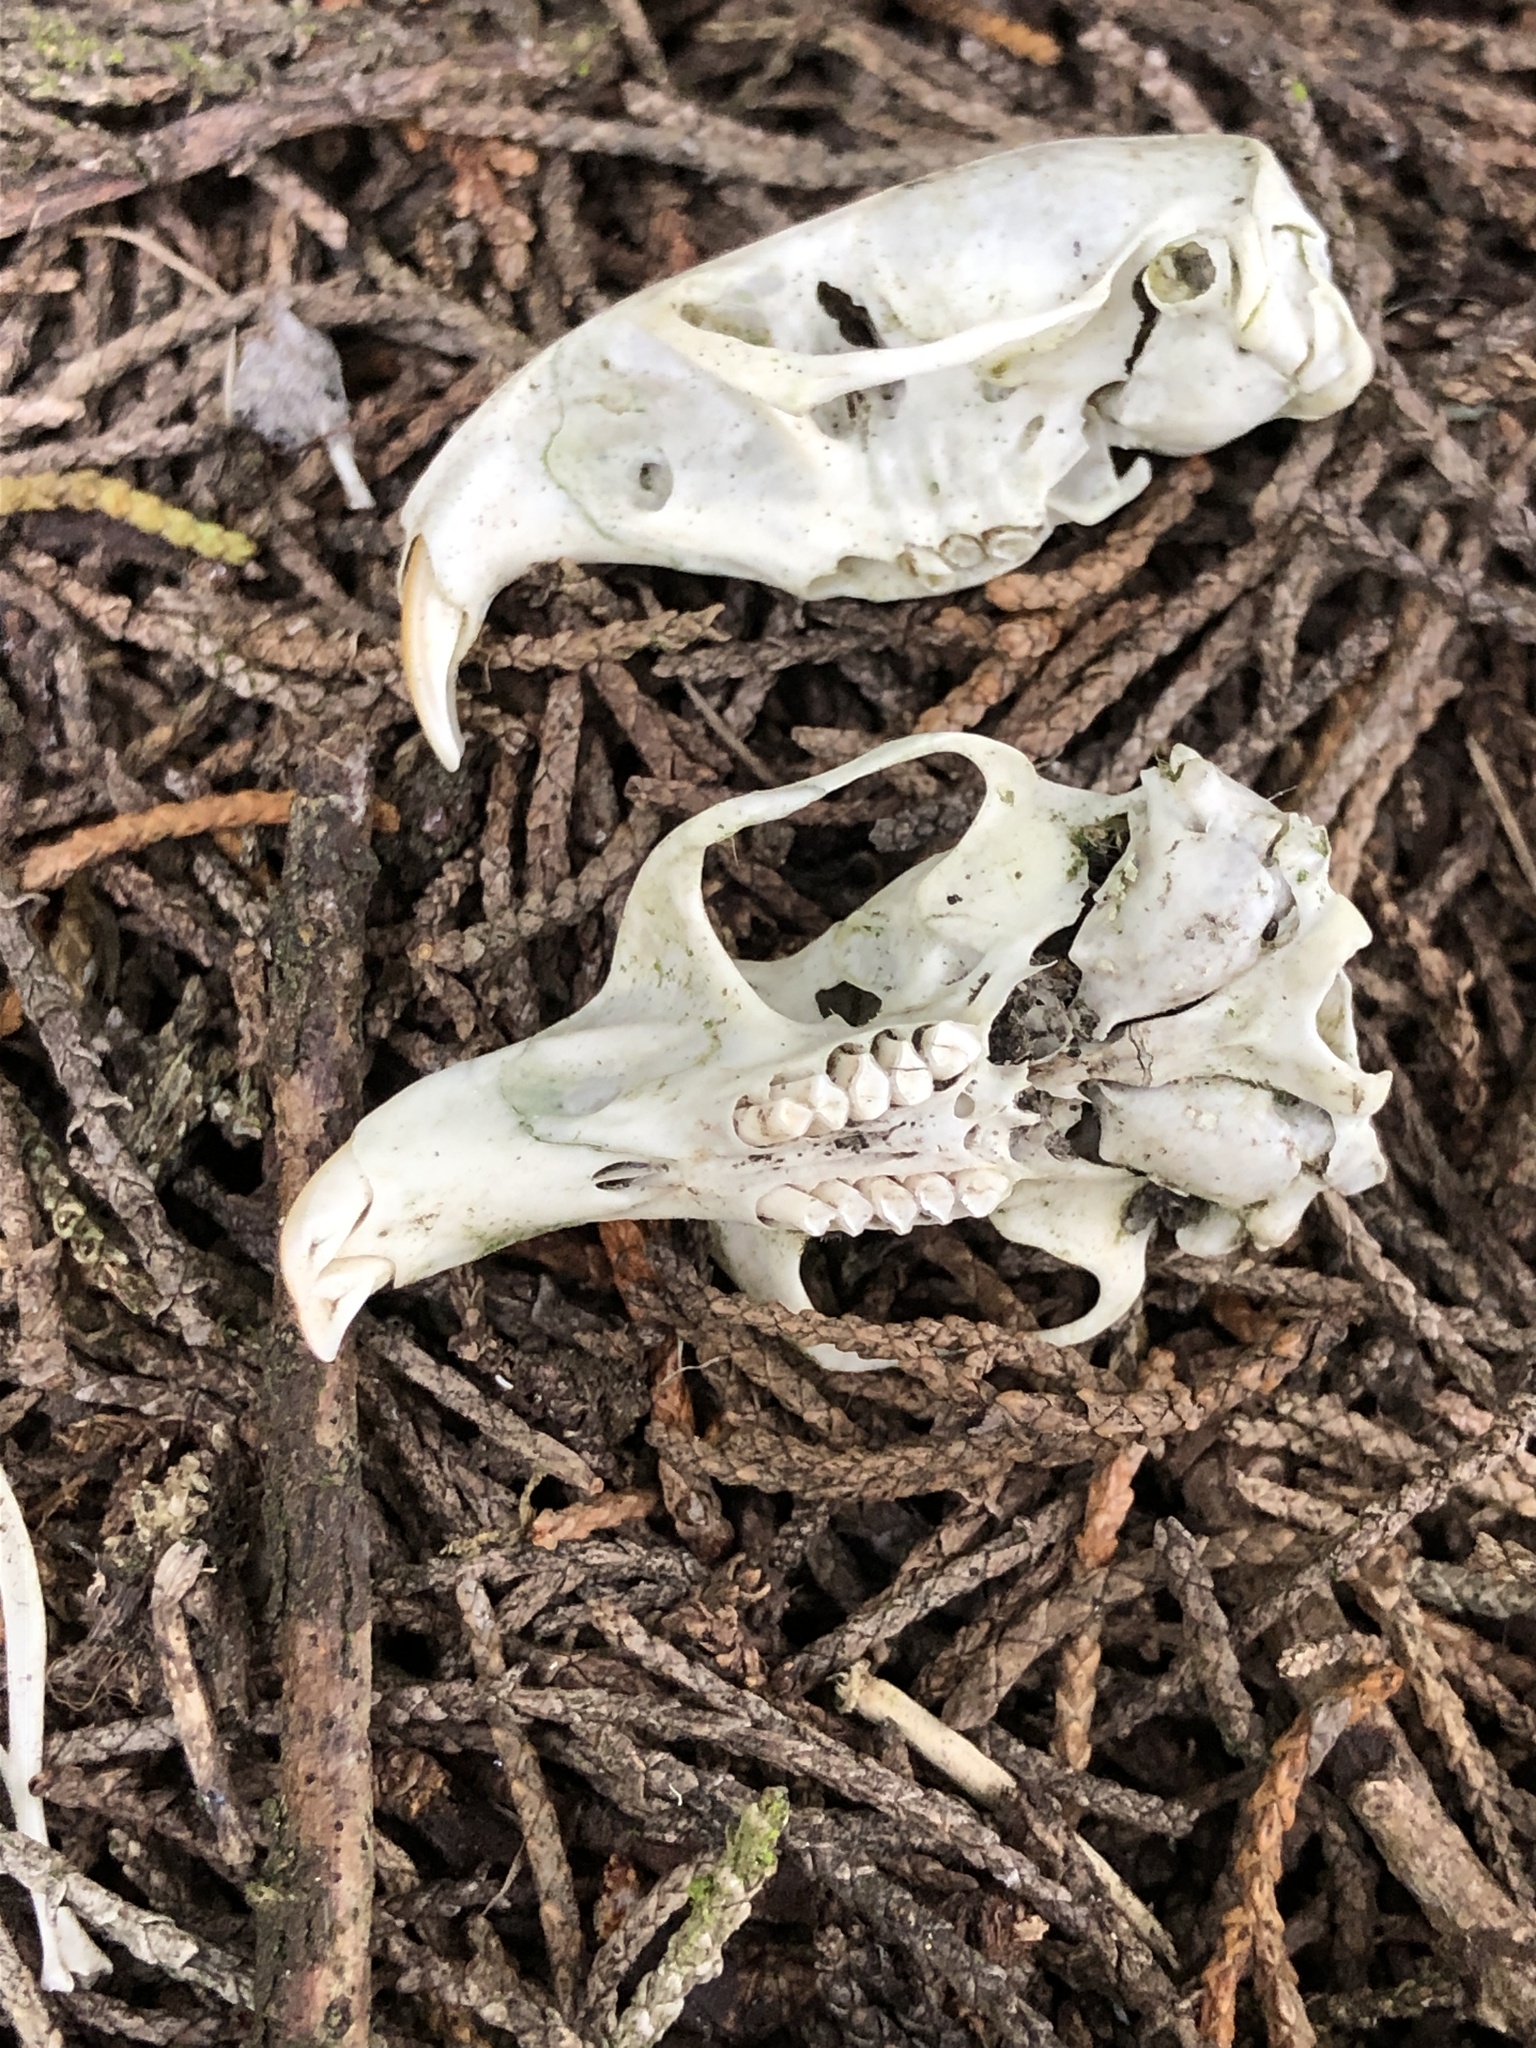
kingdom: Animalia
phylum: Chordata
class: Mammalia
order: Rodentia
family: Geomyidae
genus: Thomomys
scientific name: Thomomys bottae
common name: Botta's pocket gopher
